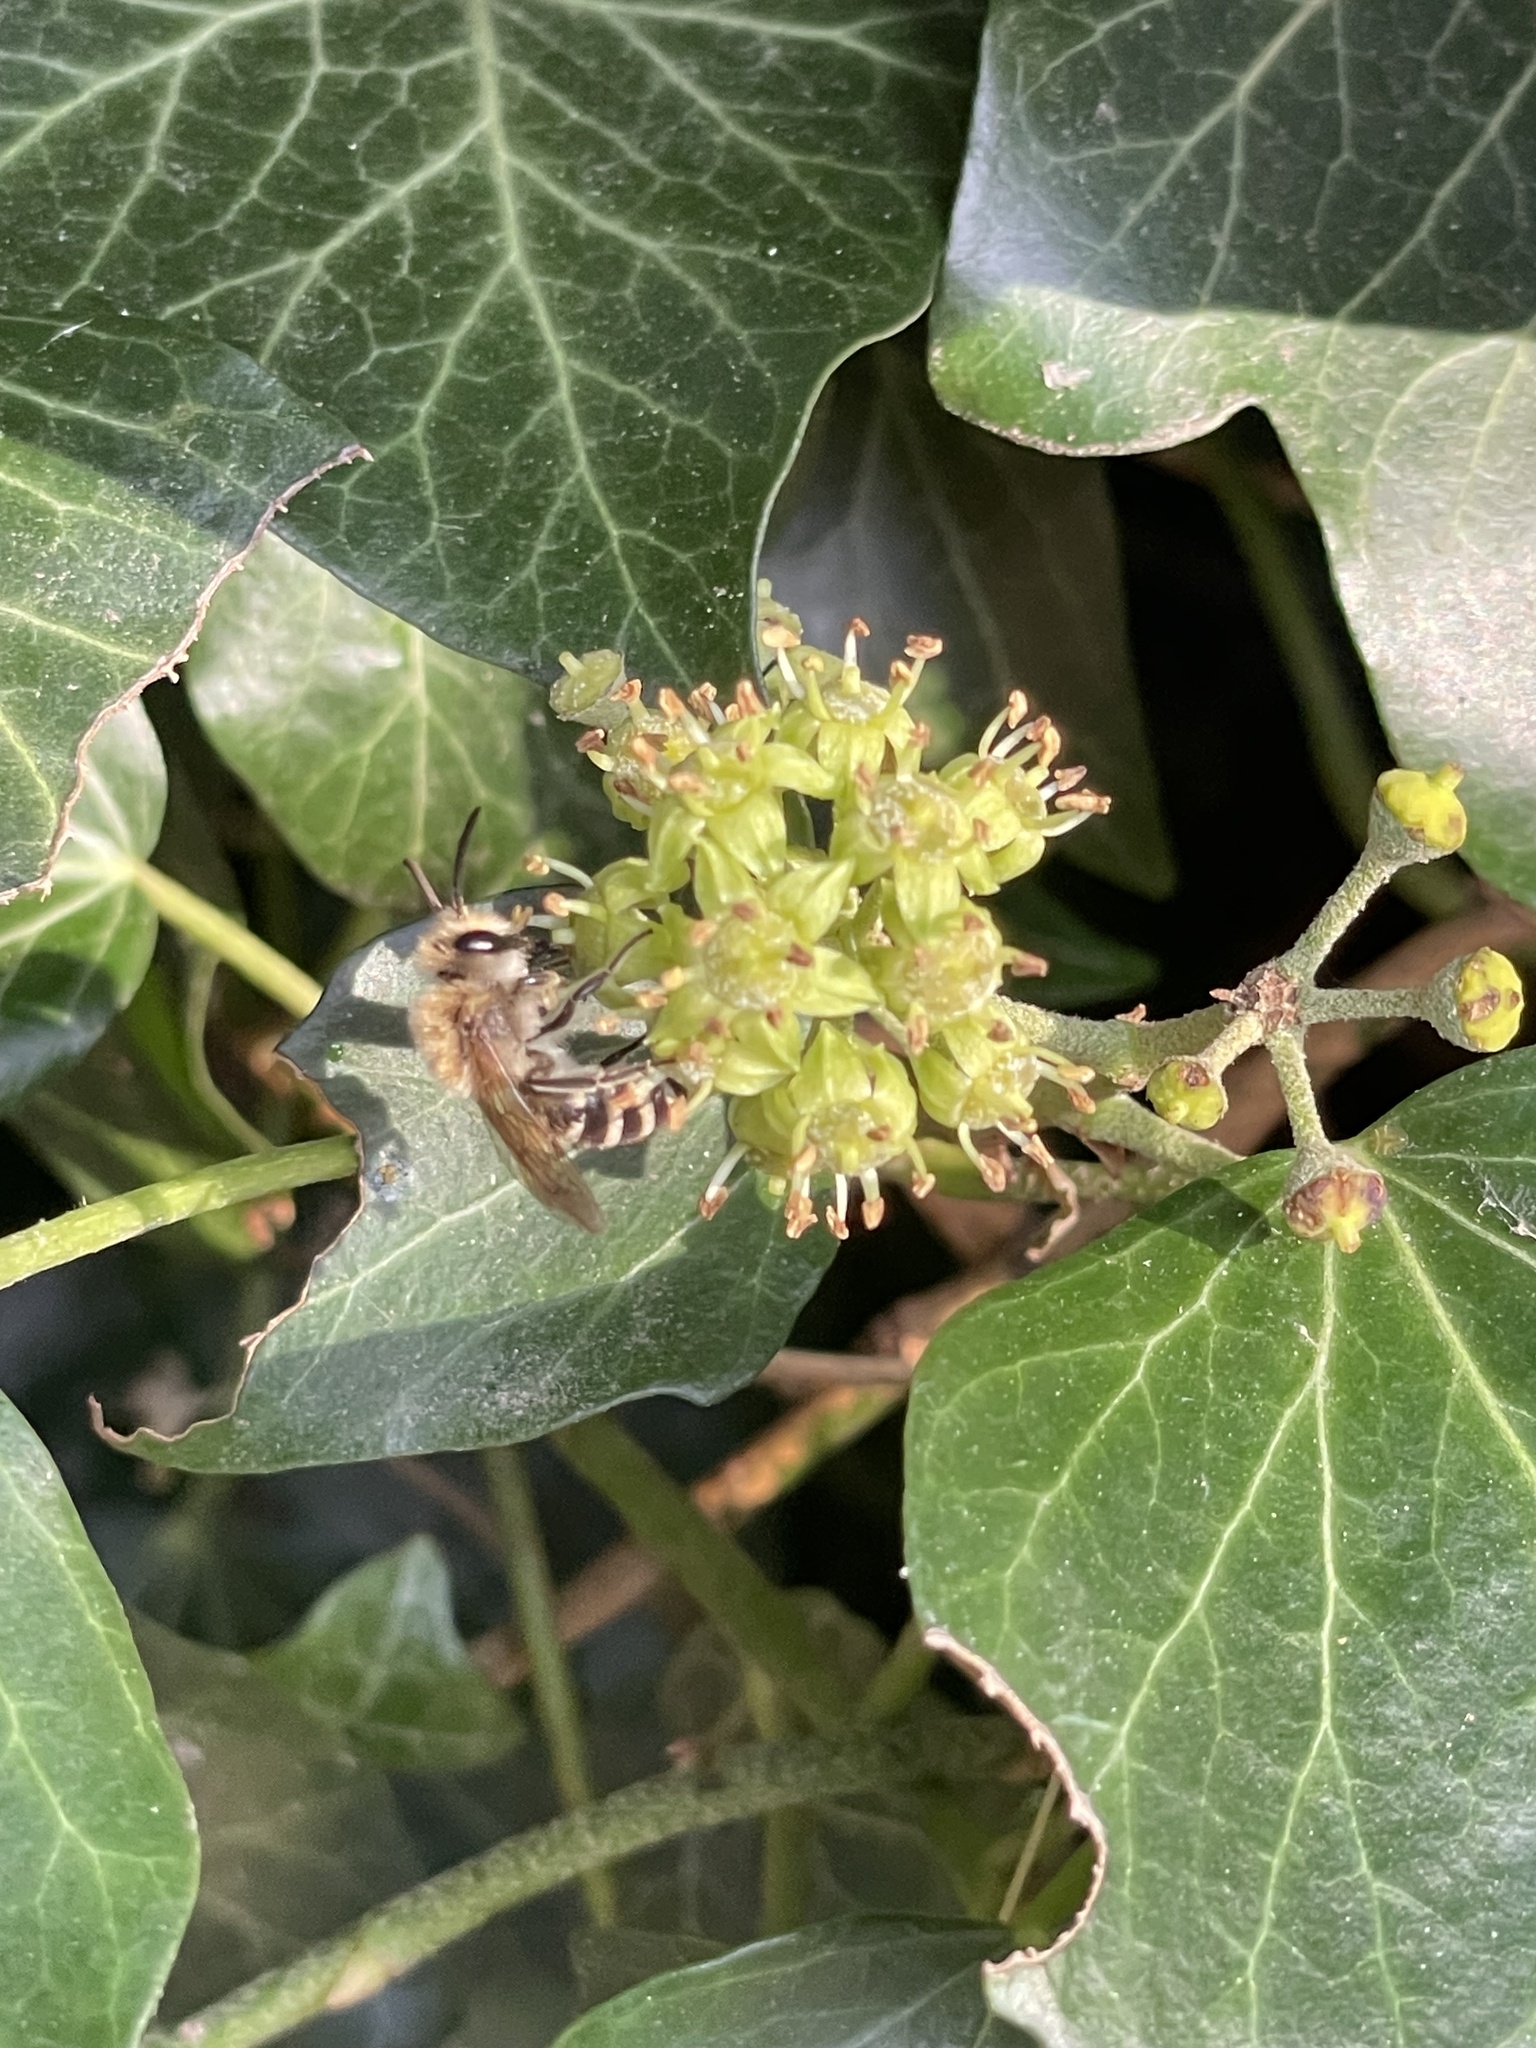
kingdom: Animalia
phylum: Arthropoda
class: Insecta
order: Hymenoptera
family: Colletidae
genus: Colletes
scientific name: Colletes hederae
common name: Ivy bee
